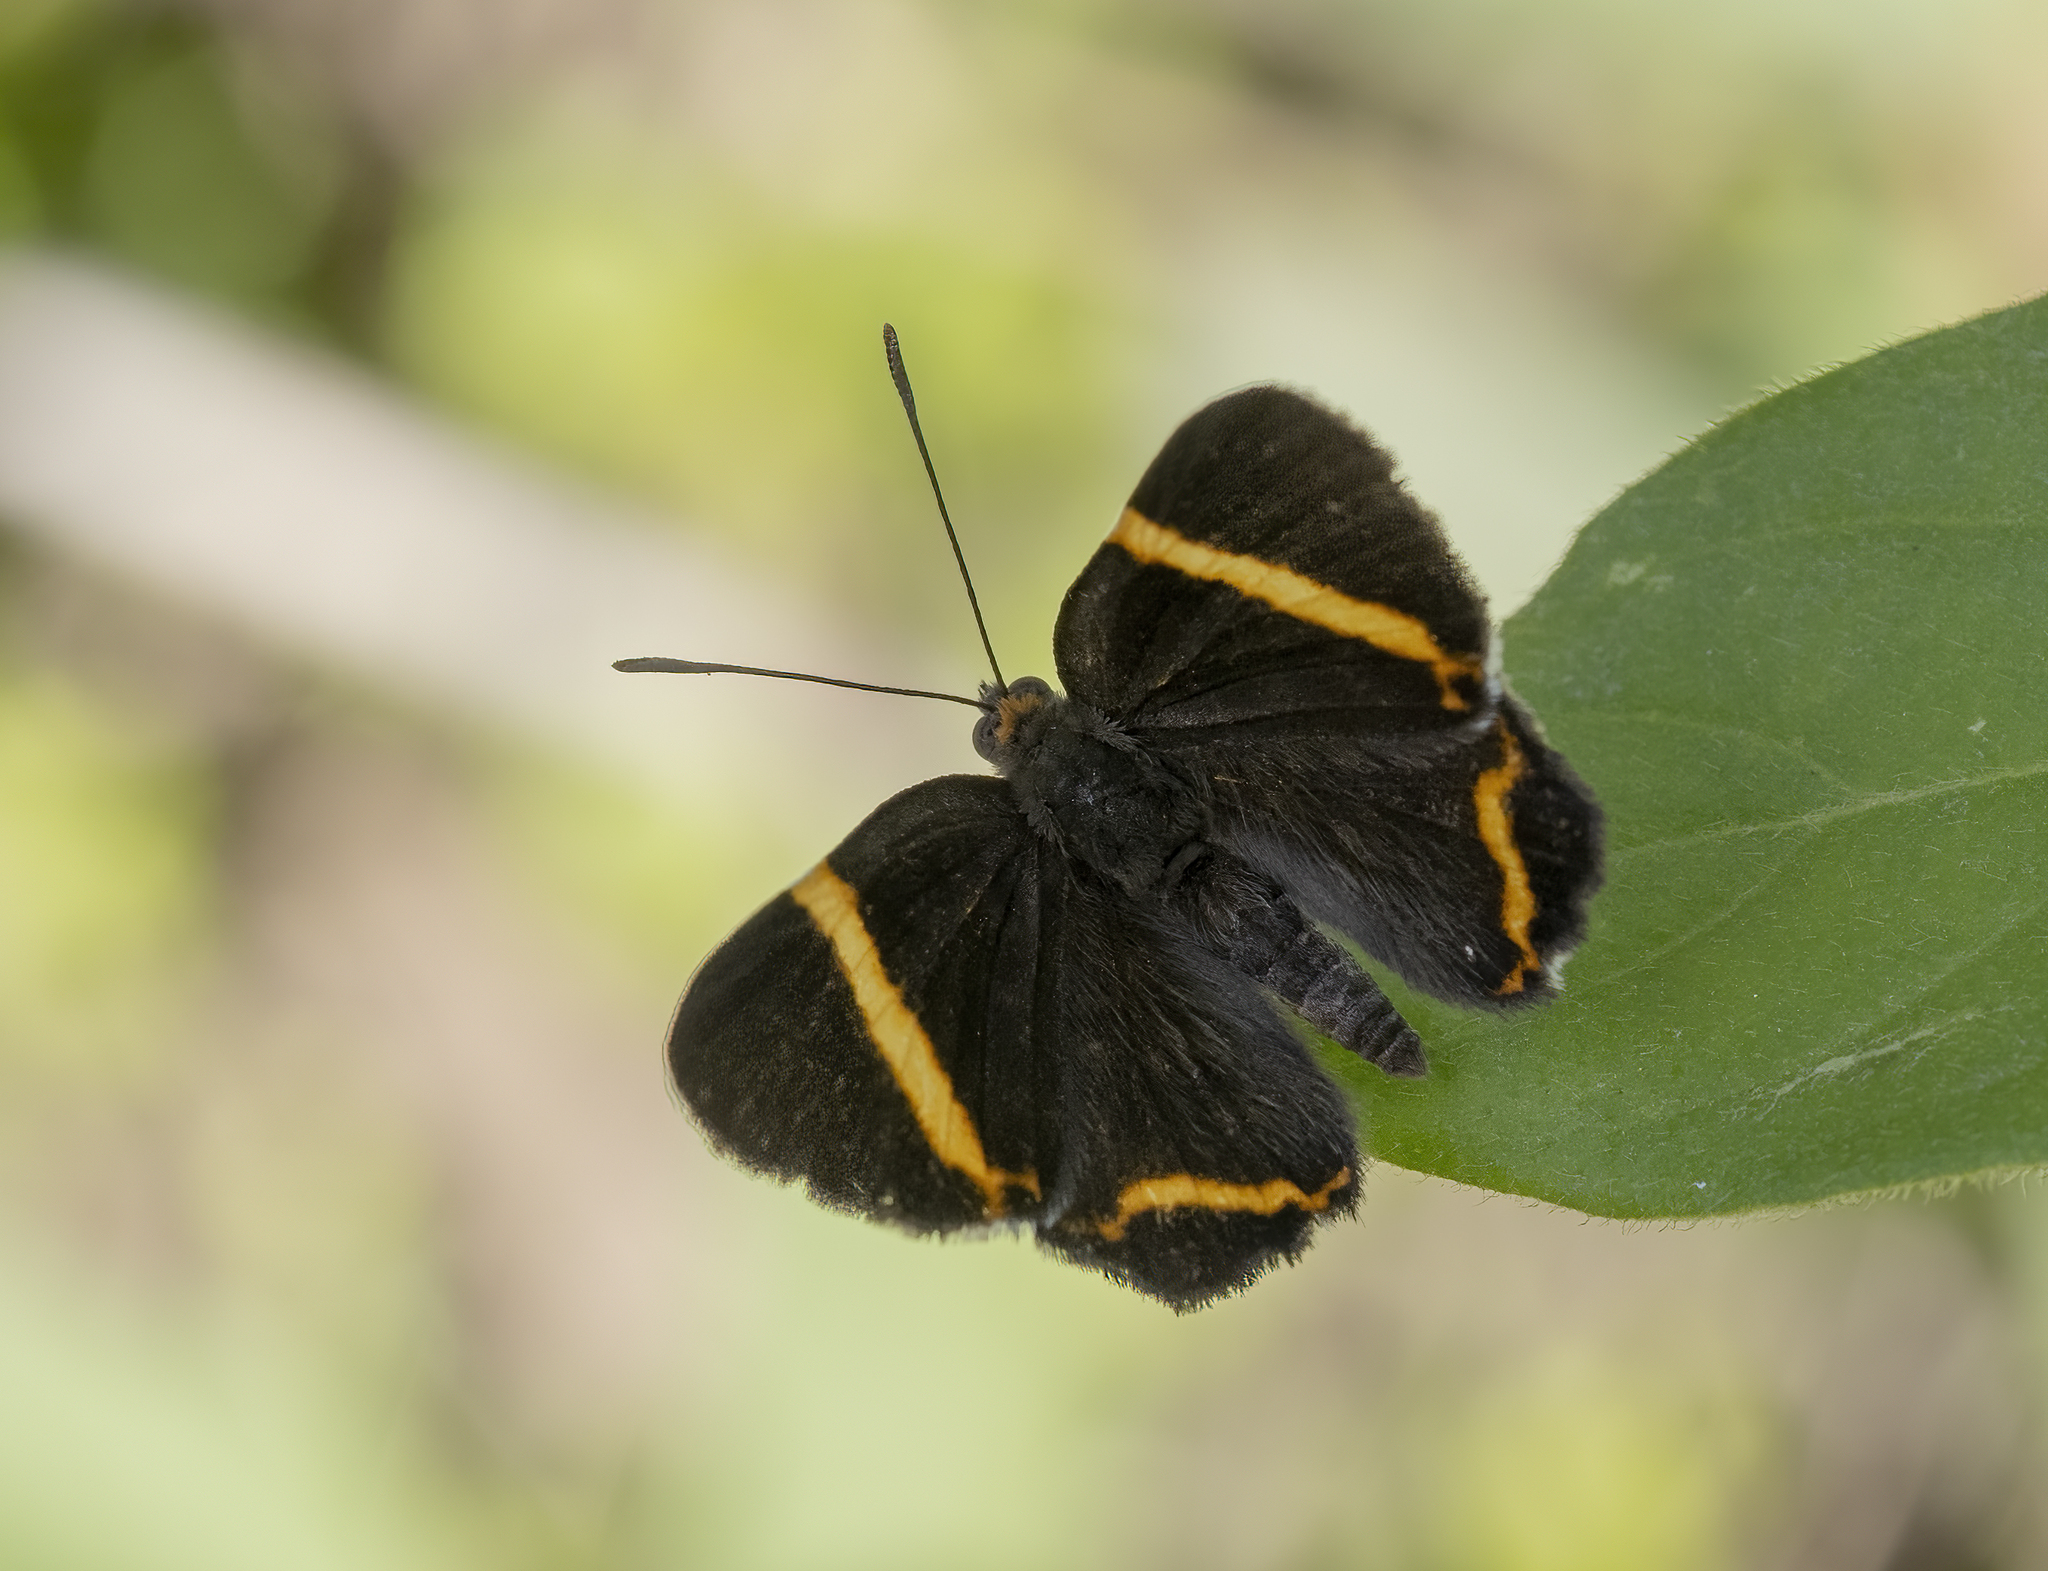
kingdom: Animalia
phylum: Arthropoda
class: Insecta
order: Lepidoptera
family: Riodinidae
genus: Riodina
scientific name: Riodina lysippoides
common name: Little dancer metalmark
